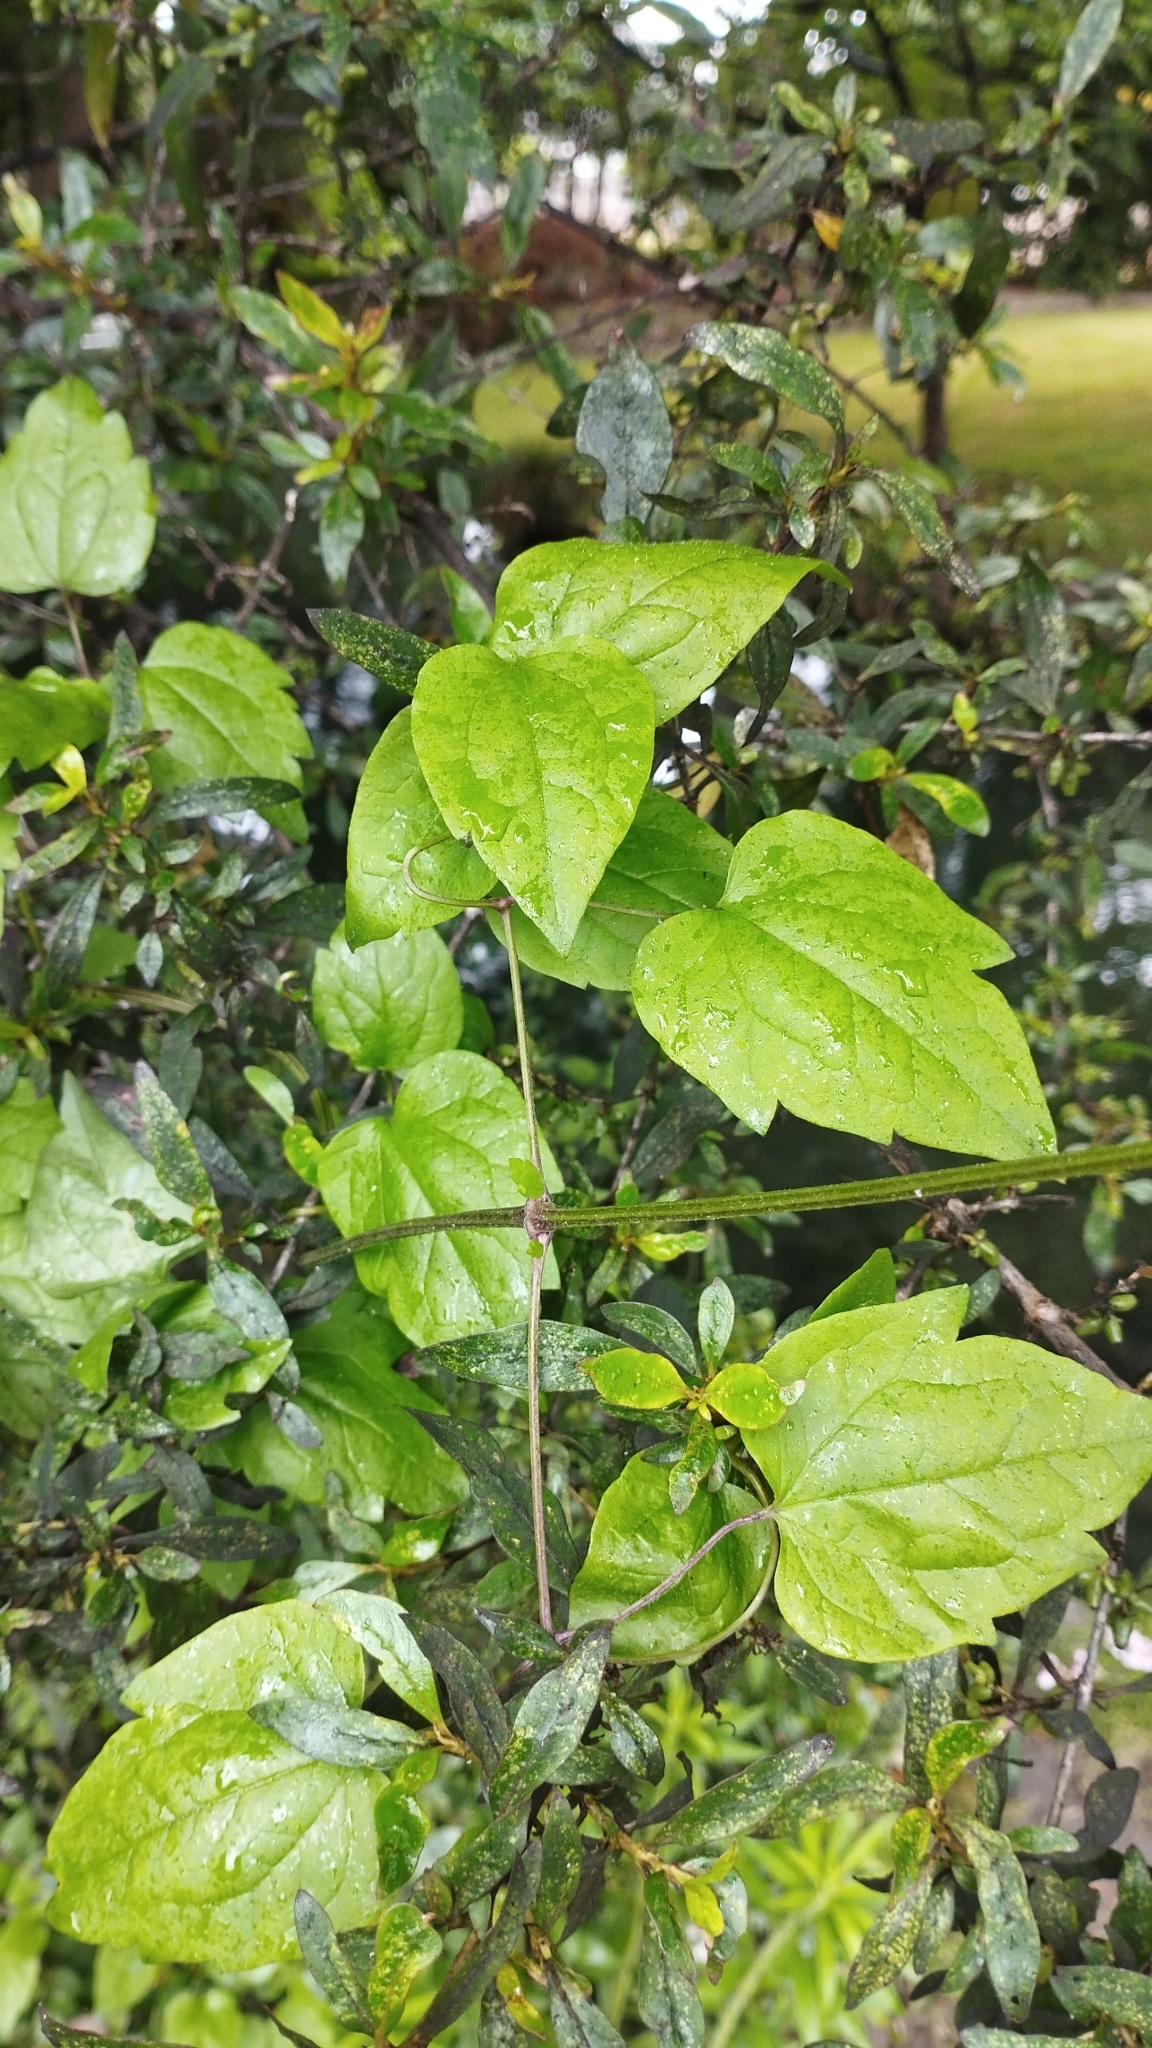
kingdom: Plantae
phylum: Tracheophyta
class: Magnoliopsida
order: Ranunculales
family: Ranunculaceae
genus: Clematis
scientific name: Clematis vitalba
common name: Evergreen clematis
